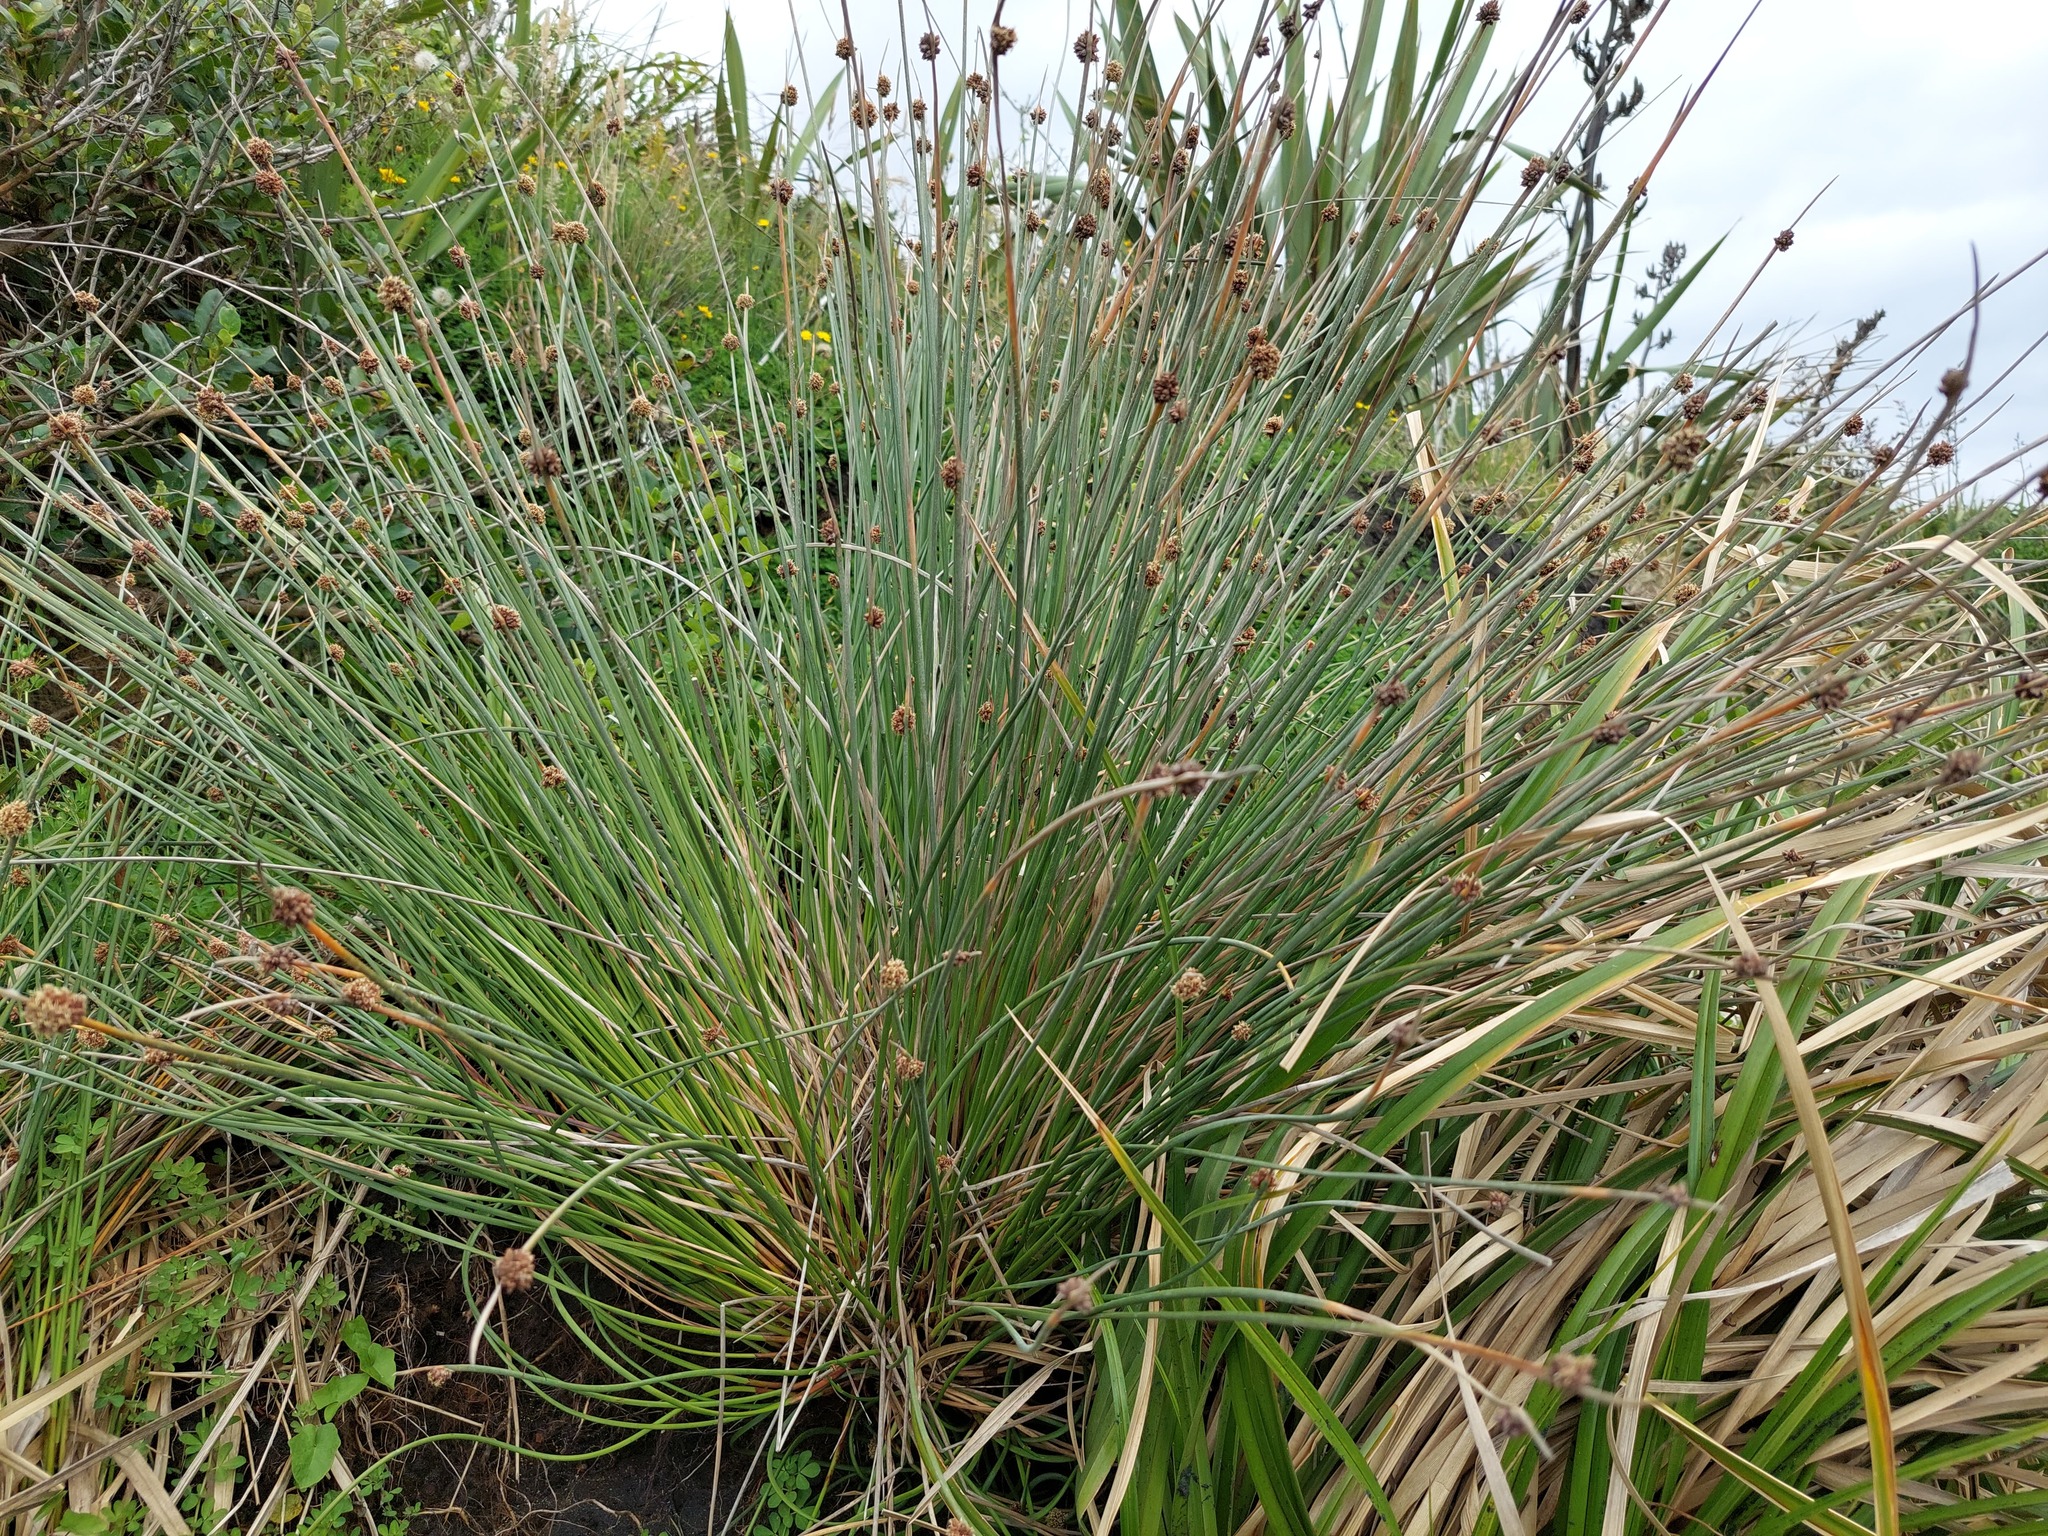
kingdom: Plantae
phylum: Tracheophyta
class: Liliopsida
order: Poales
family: Cyperaceae
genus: Ficinia
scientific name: Ficinia nodosa
